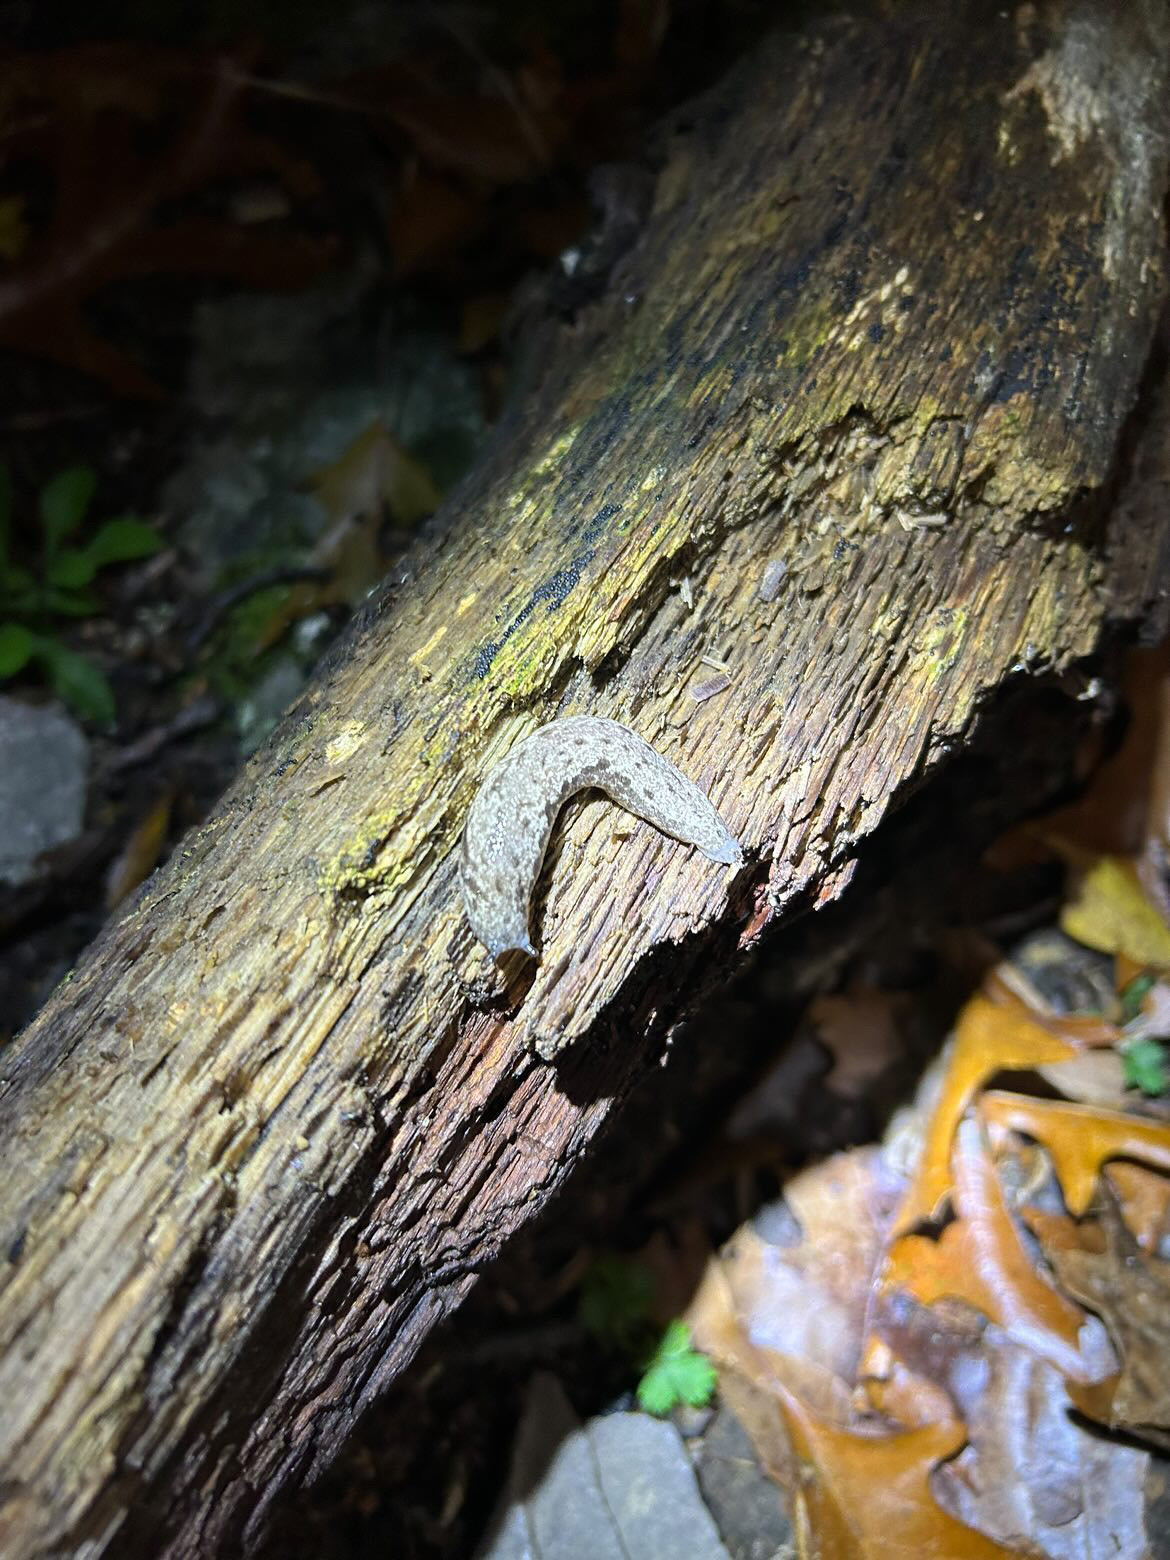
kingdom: Animalia
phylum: Mollusca
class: Gastropoda
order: Stylommatophora
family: Philomycidae
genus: Megapallifera
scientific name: Megapallifera mutabilis
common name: Changeable mantleslug
